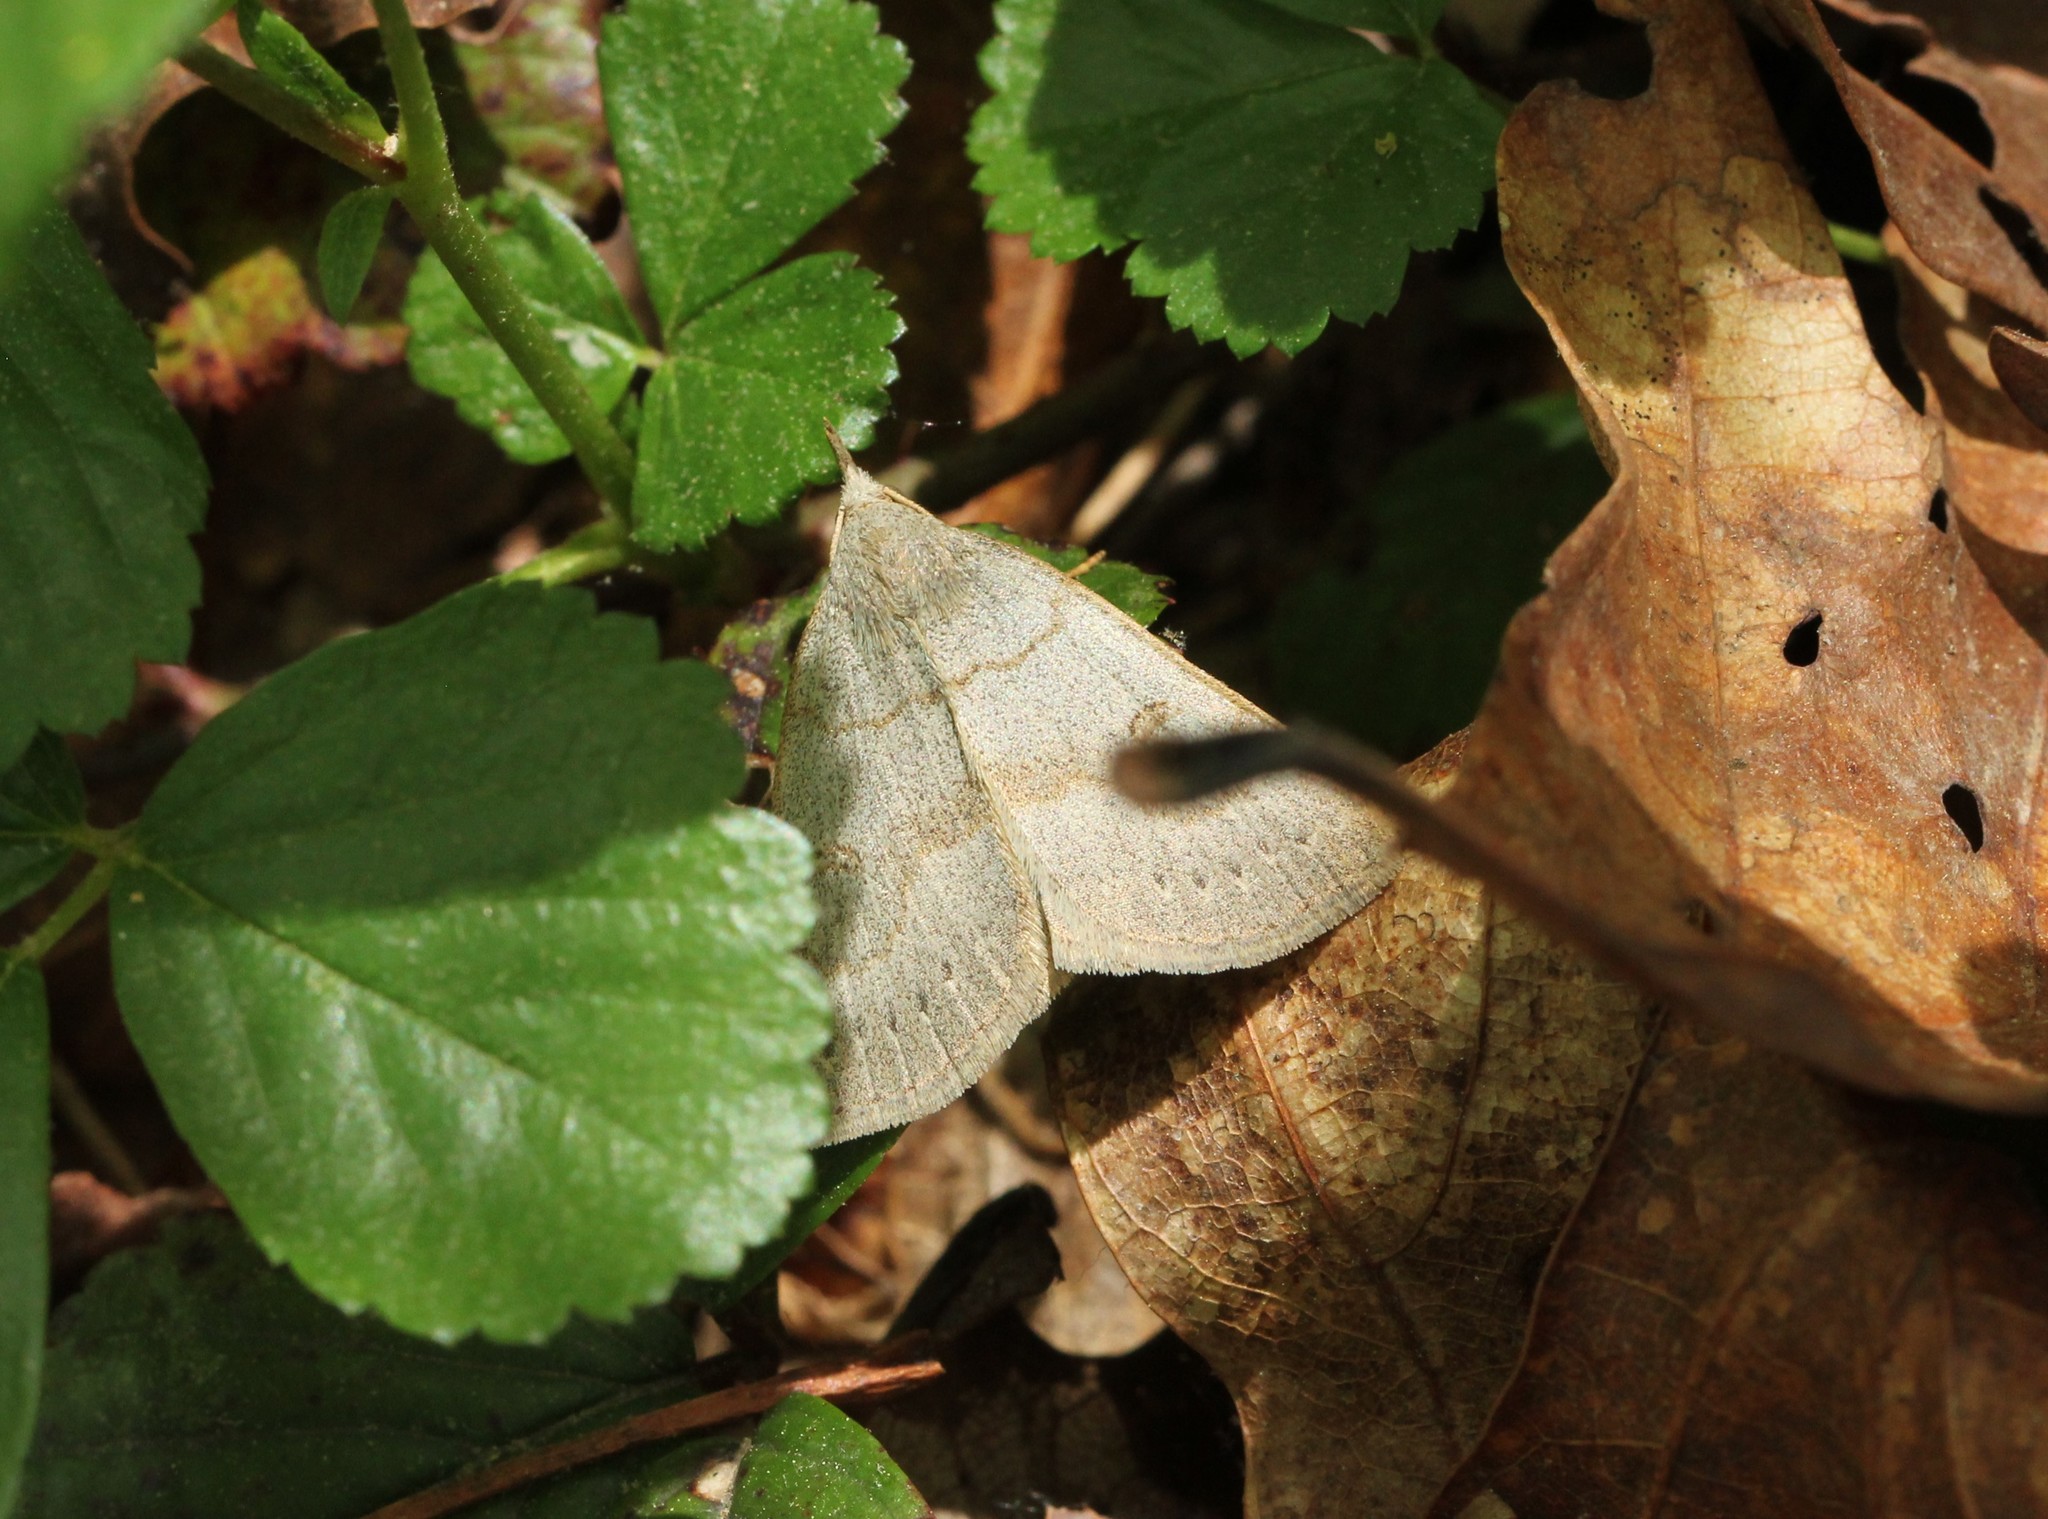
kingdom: Animalia
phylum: Arthropoda
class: Insecta
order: Lepidoptera
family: Erebidae
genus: Macrochilo
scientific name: Macrochilo morbidalis
